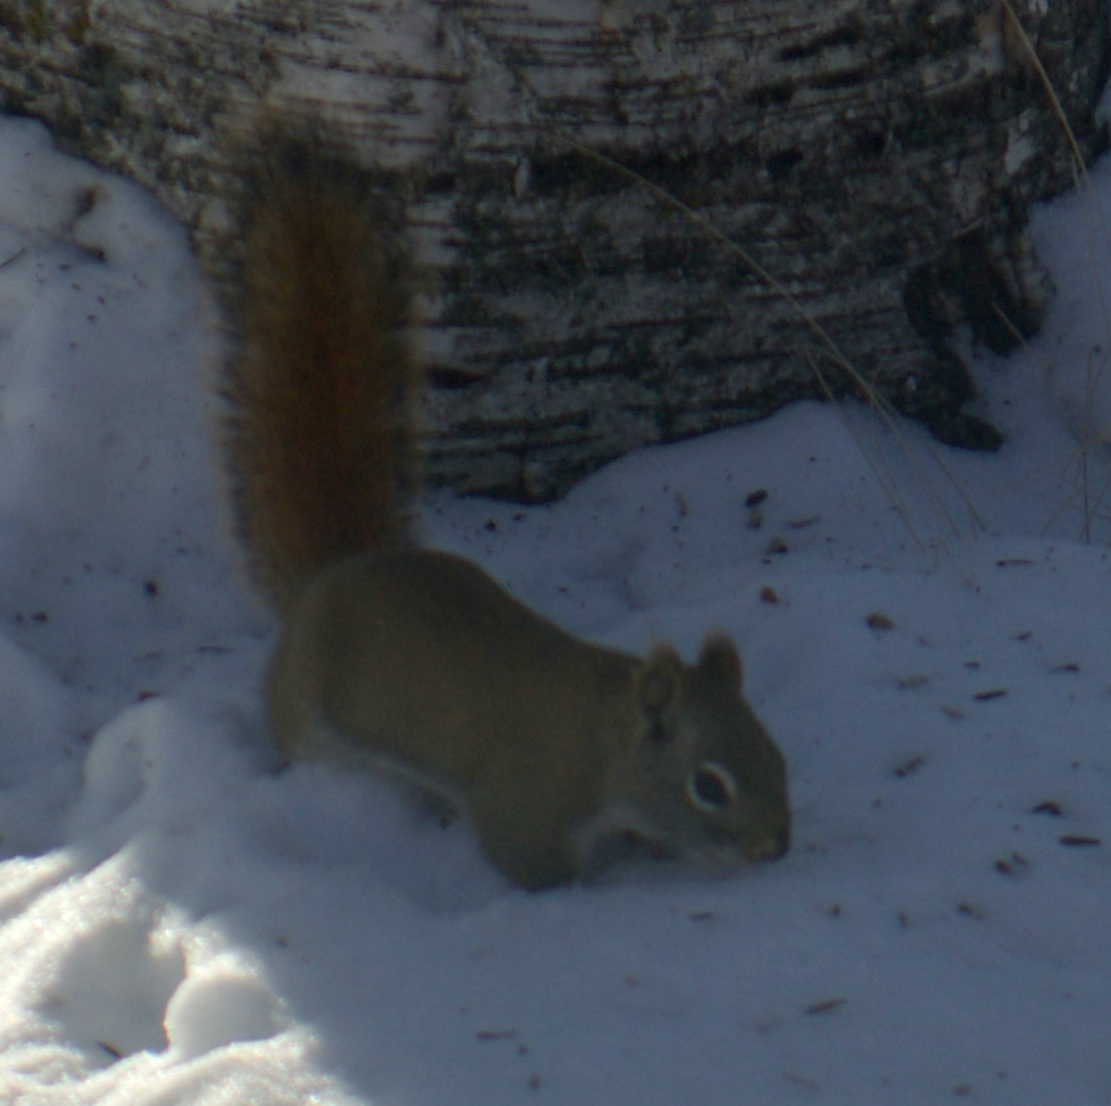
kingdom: Animalia
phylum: Chordata
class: Mammalia
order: Rodentia
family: Sciuridae
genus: Tamiasciurus
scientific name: Tamiasciurus hudsonicus
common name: Red squirrel
